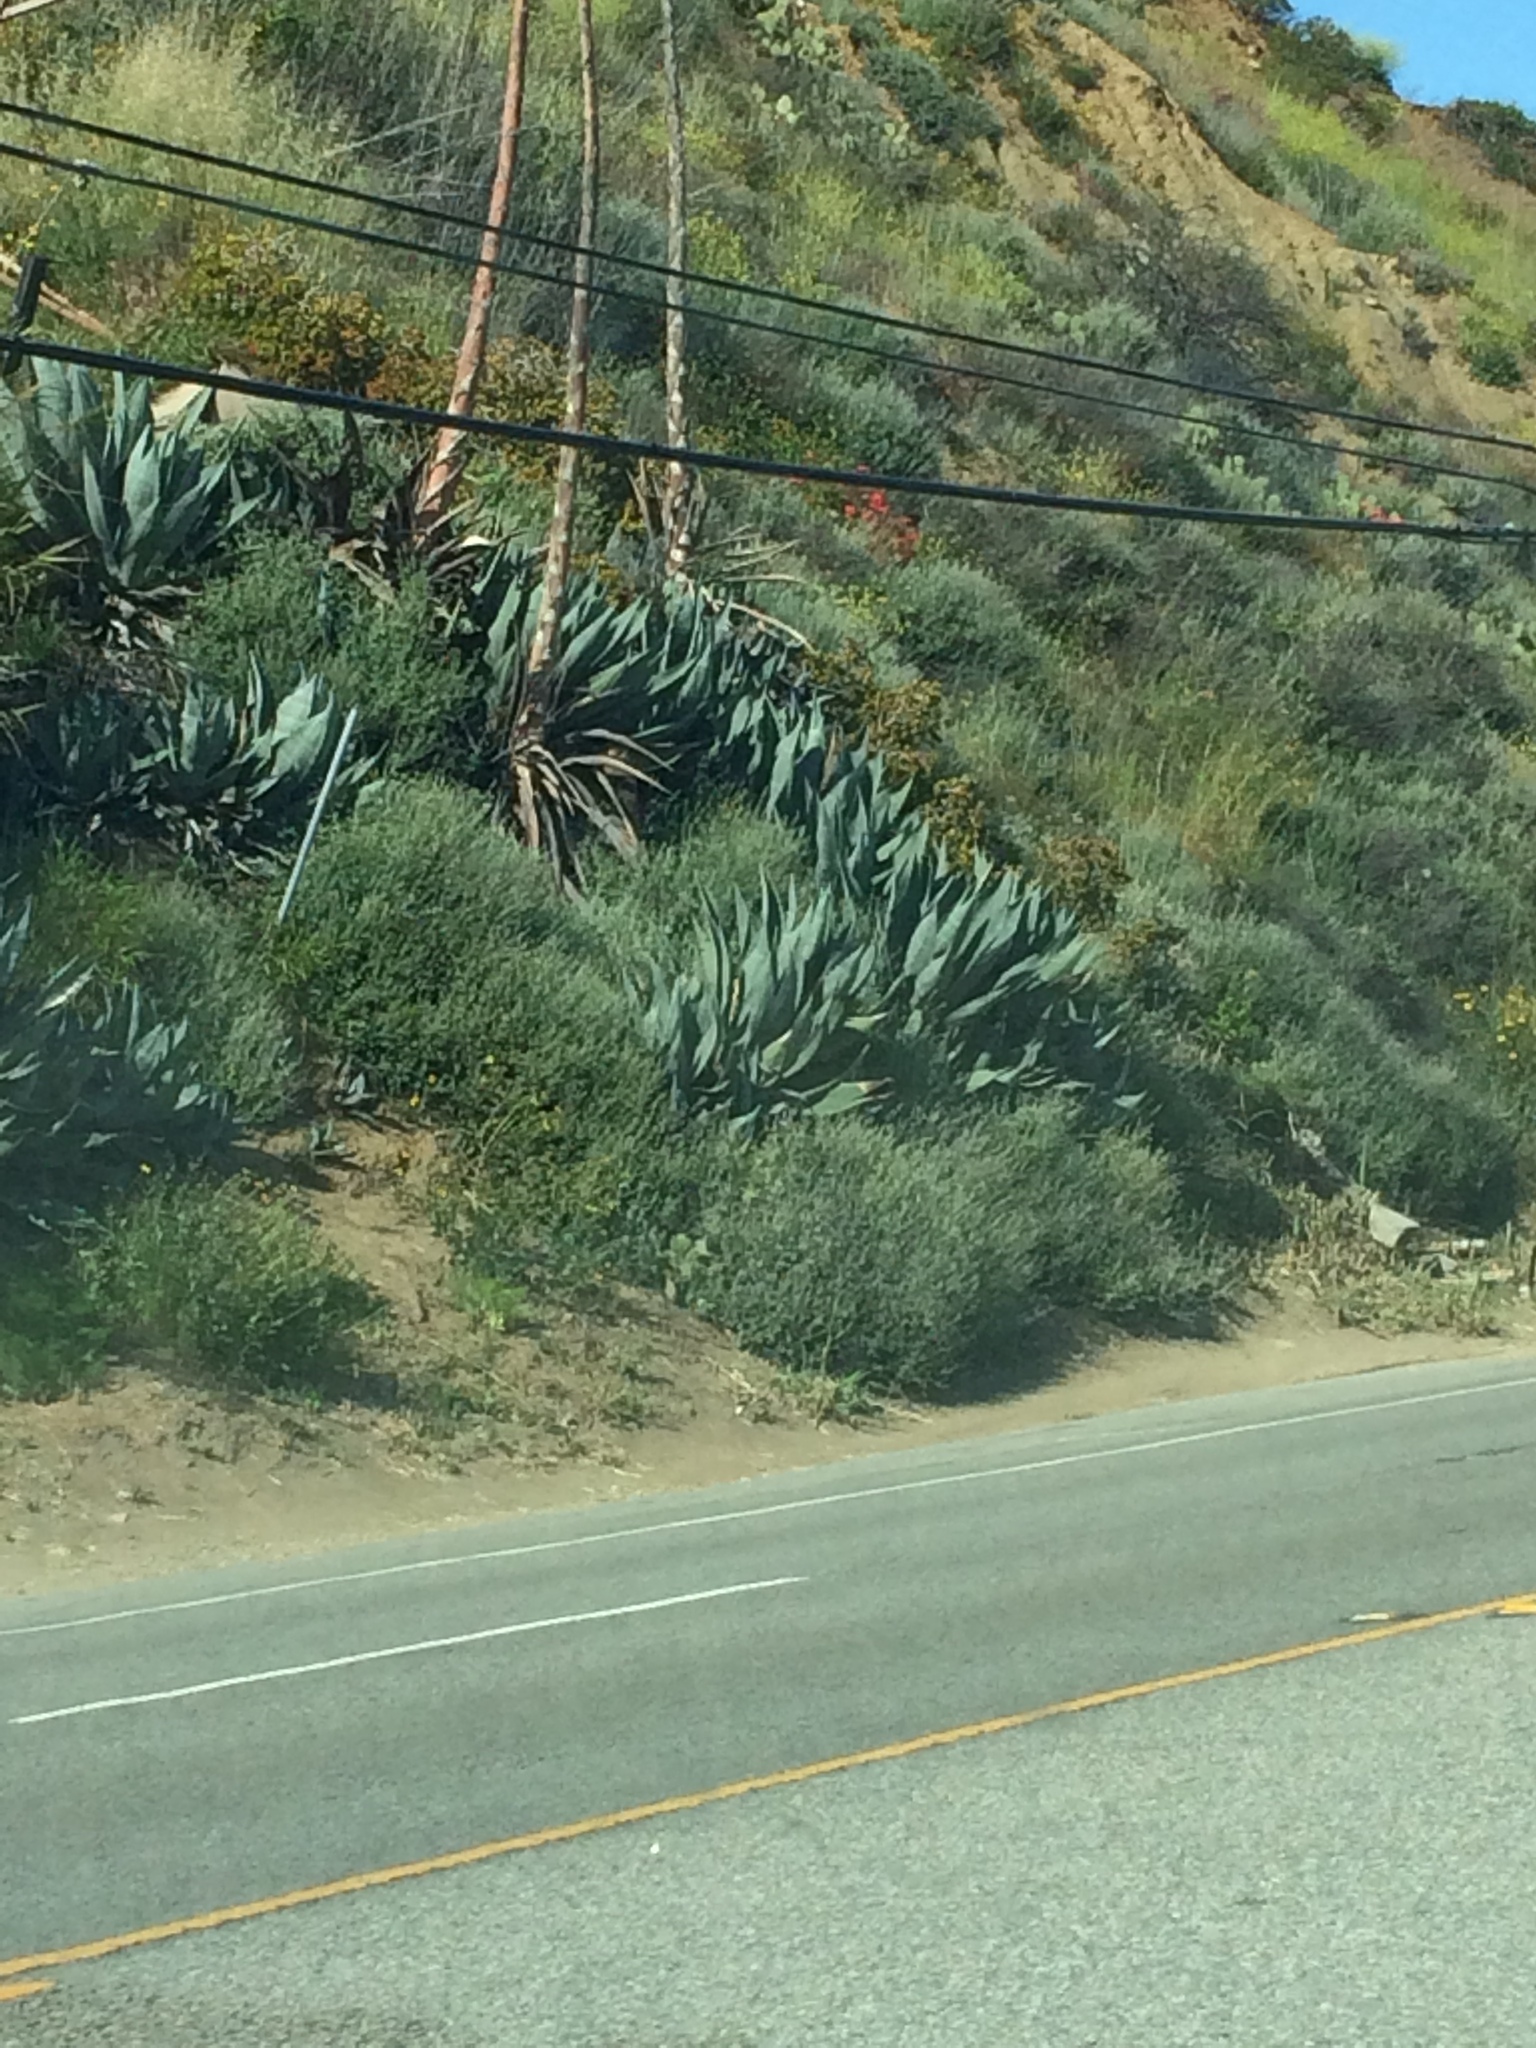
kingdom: Plantae
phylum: Tracheophyta
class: Liliopsida
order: Asparagales
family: Asparagaceae
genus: Agave
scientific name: Agave americana
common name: Centuryplant
